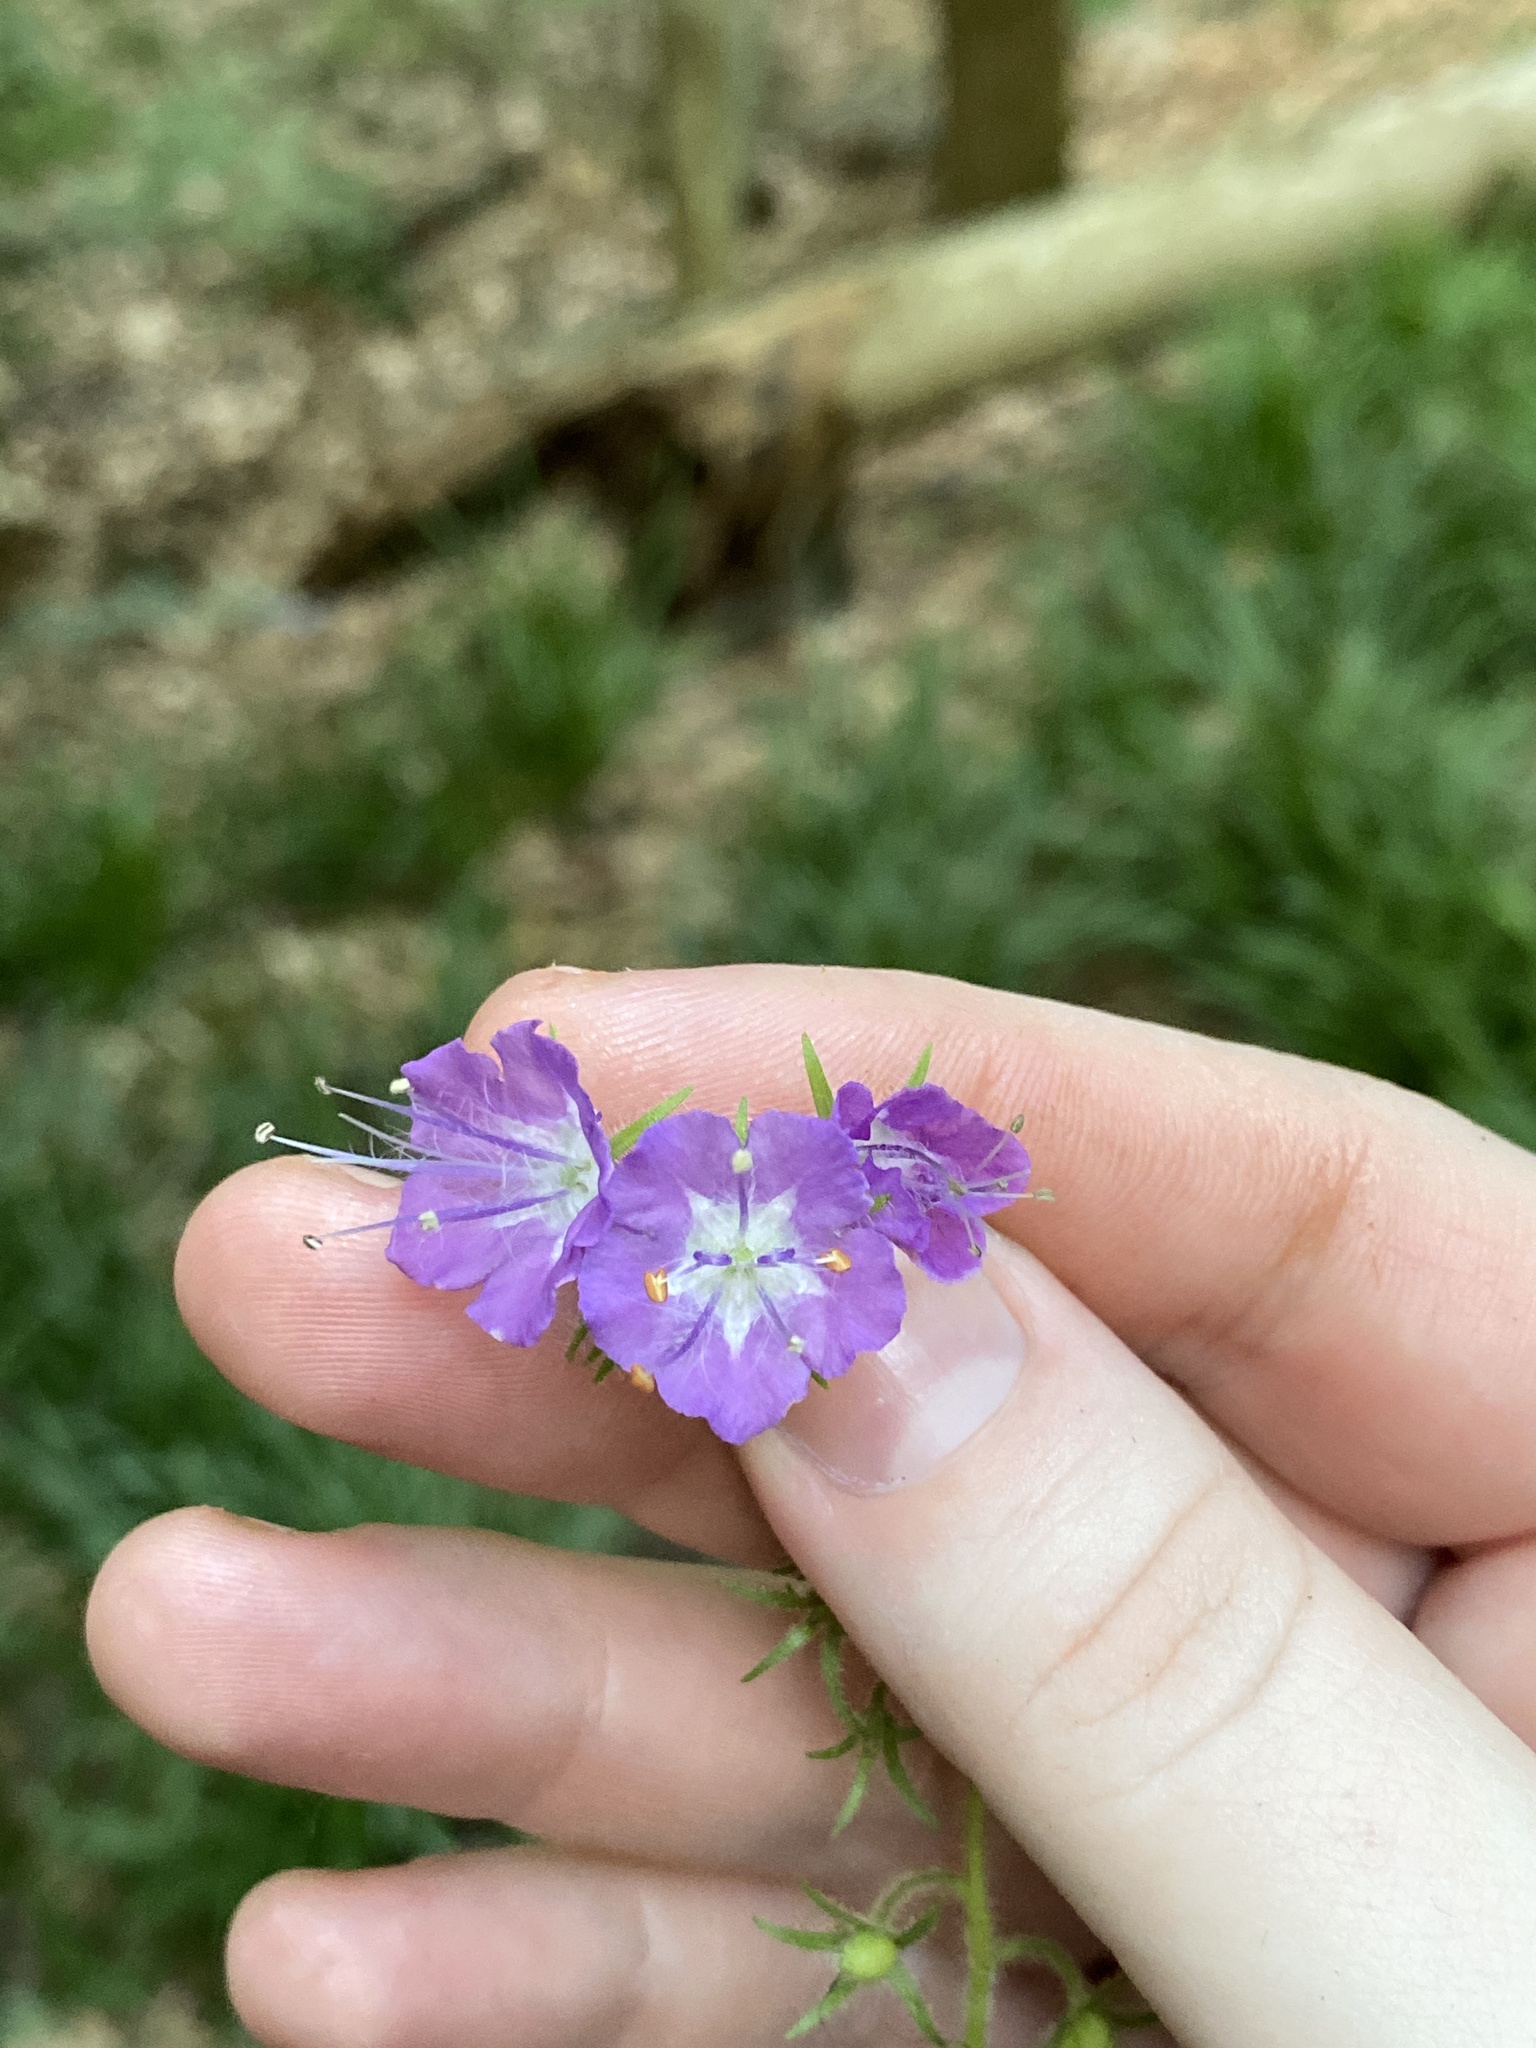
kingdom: Plantae
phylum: Tracheophyta
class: Magnoliopsida
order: Boraginales
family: Hydrophyllaceae
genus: Phacelia
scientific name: Phacelia bipinnatifida
